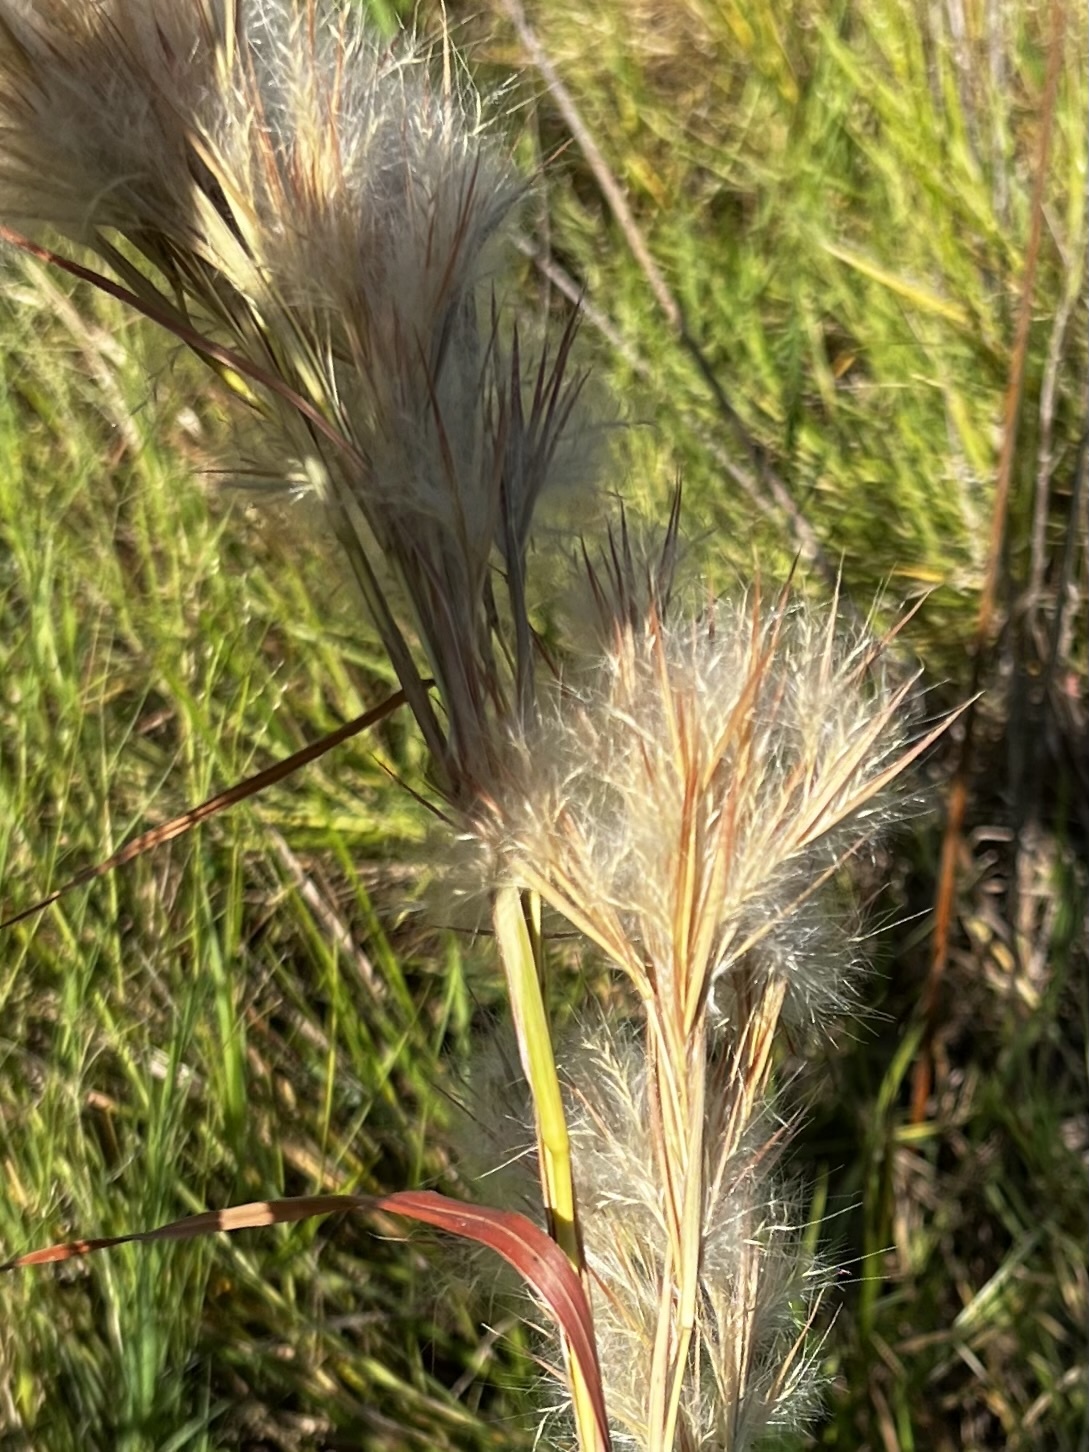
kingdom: Plantae
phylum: Tracheophyta
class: Liliopsida
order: Poales
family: Poaceae
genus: Andropogon
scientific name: Andropogon tenuispatheus
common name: Bushy bluestem
